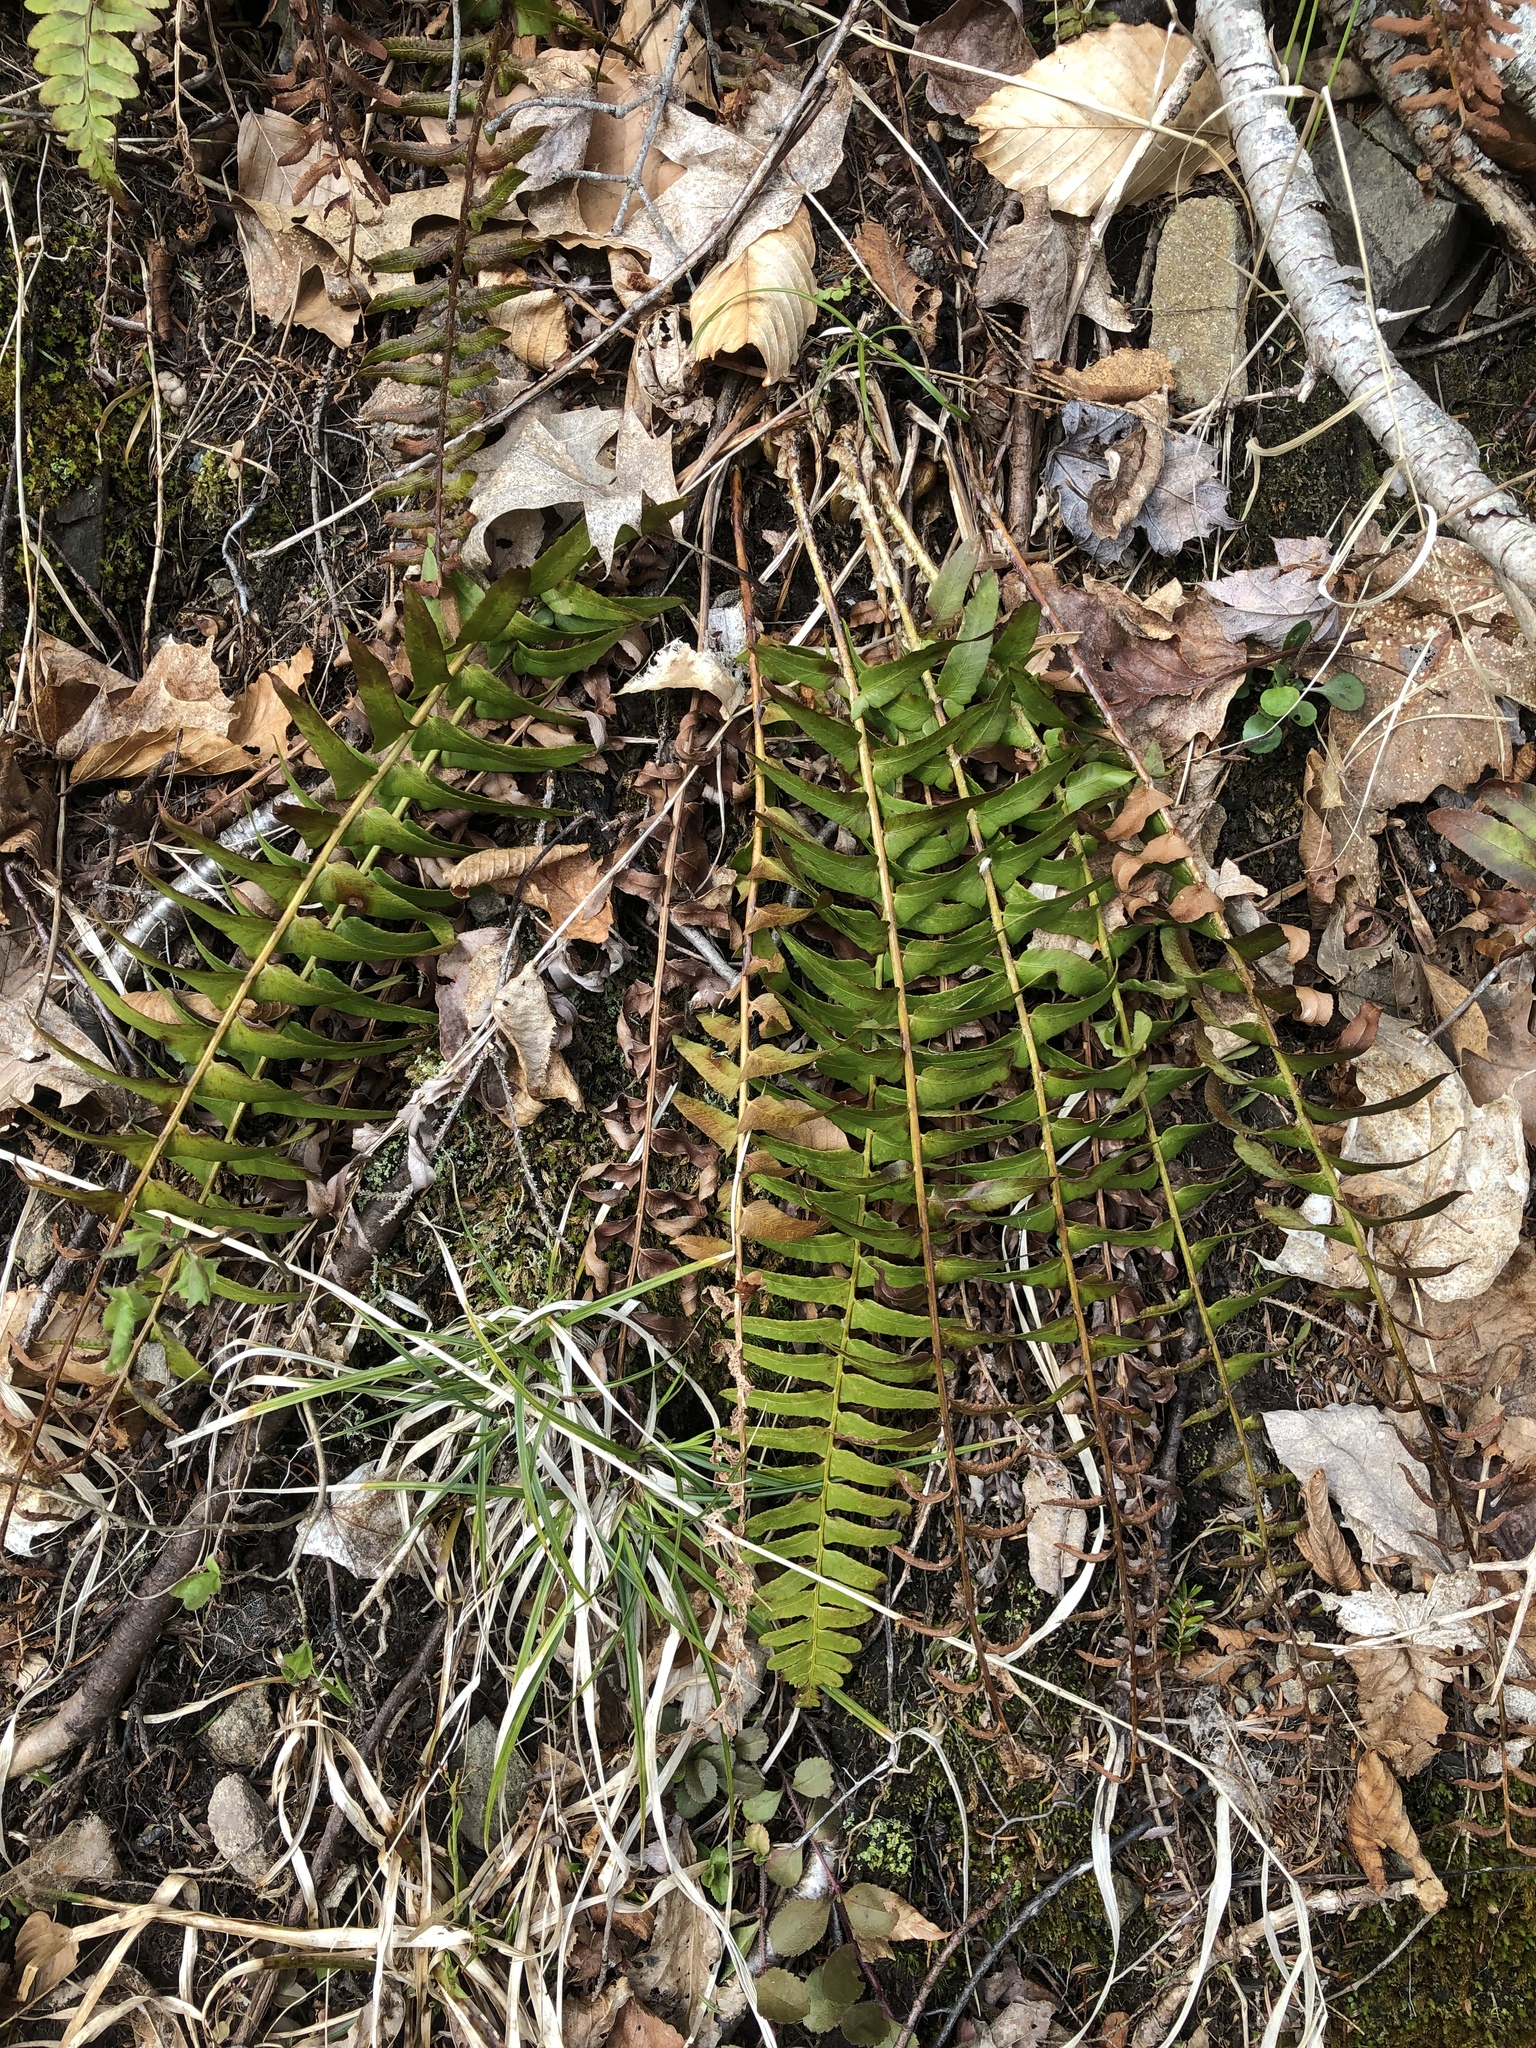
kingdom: Plantae
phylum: Tracheophyta
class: Polypodiopsida
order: Polypodiales
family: Dryopteridaceae
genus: Polystichum
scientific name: Polystichum acrostichoides
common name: Christmas fern
